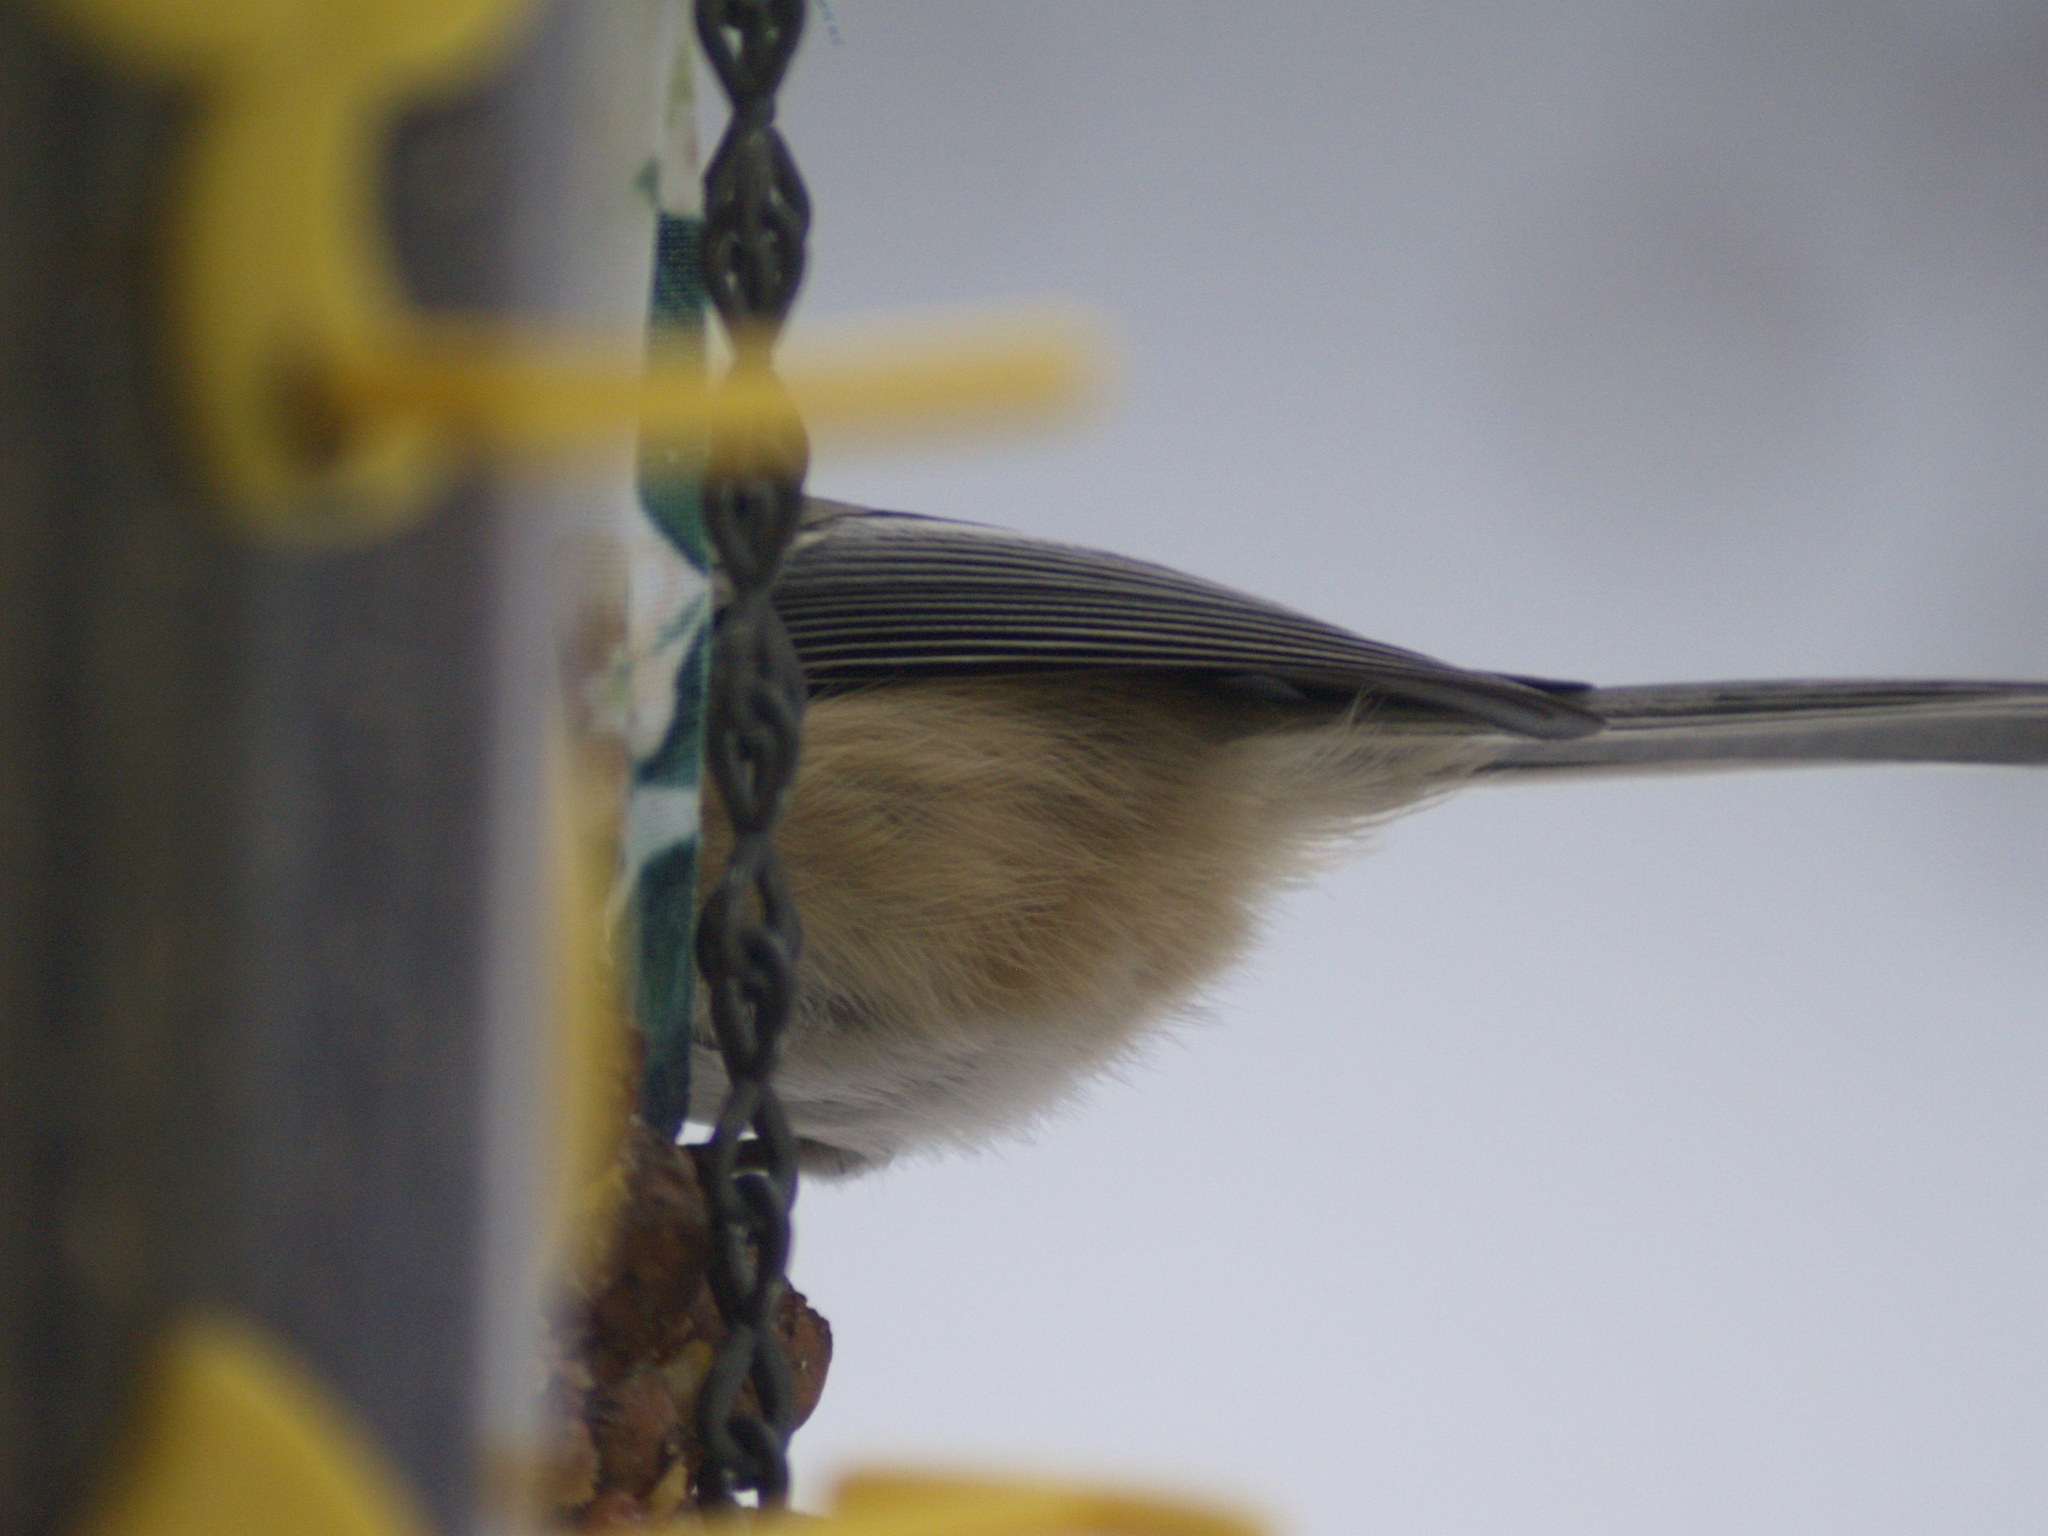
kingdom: Animalia
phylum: Chordata
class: Aves
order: Passeriformes
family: Paridae
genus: Poecile
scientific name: Poecile atricapillus
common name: Black-capped chickadee
